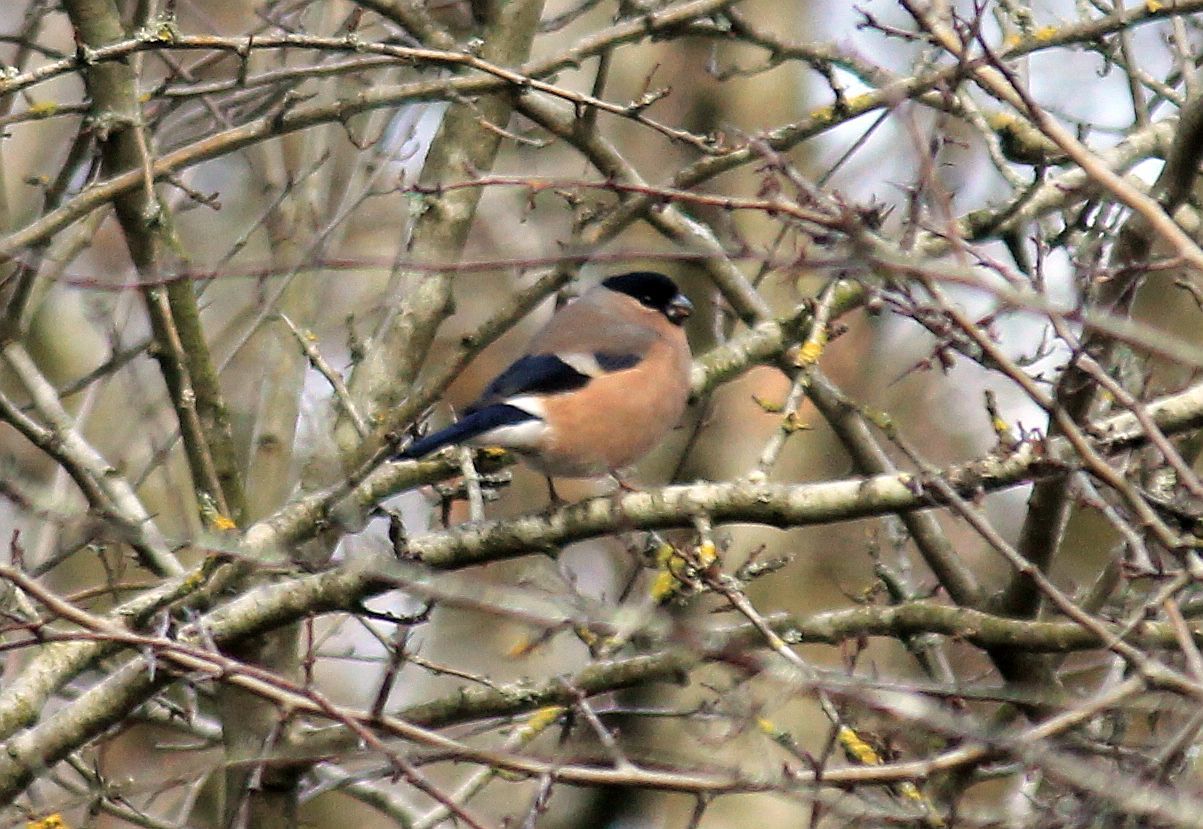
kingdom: Animalia
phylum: Chordata
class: Aves
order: Passeriformes
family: Fringillidae
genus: Pyrrhula
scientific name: Pyrrhula pyrrhula
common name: Eurasian bullfinch
